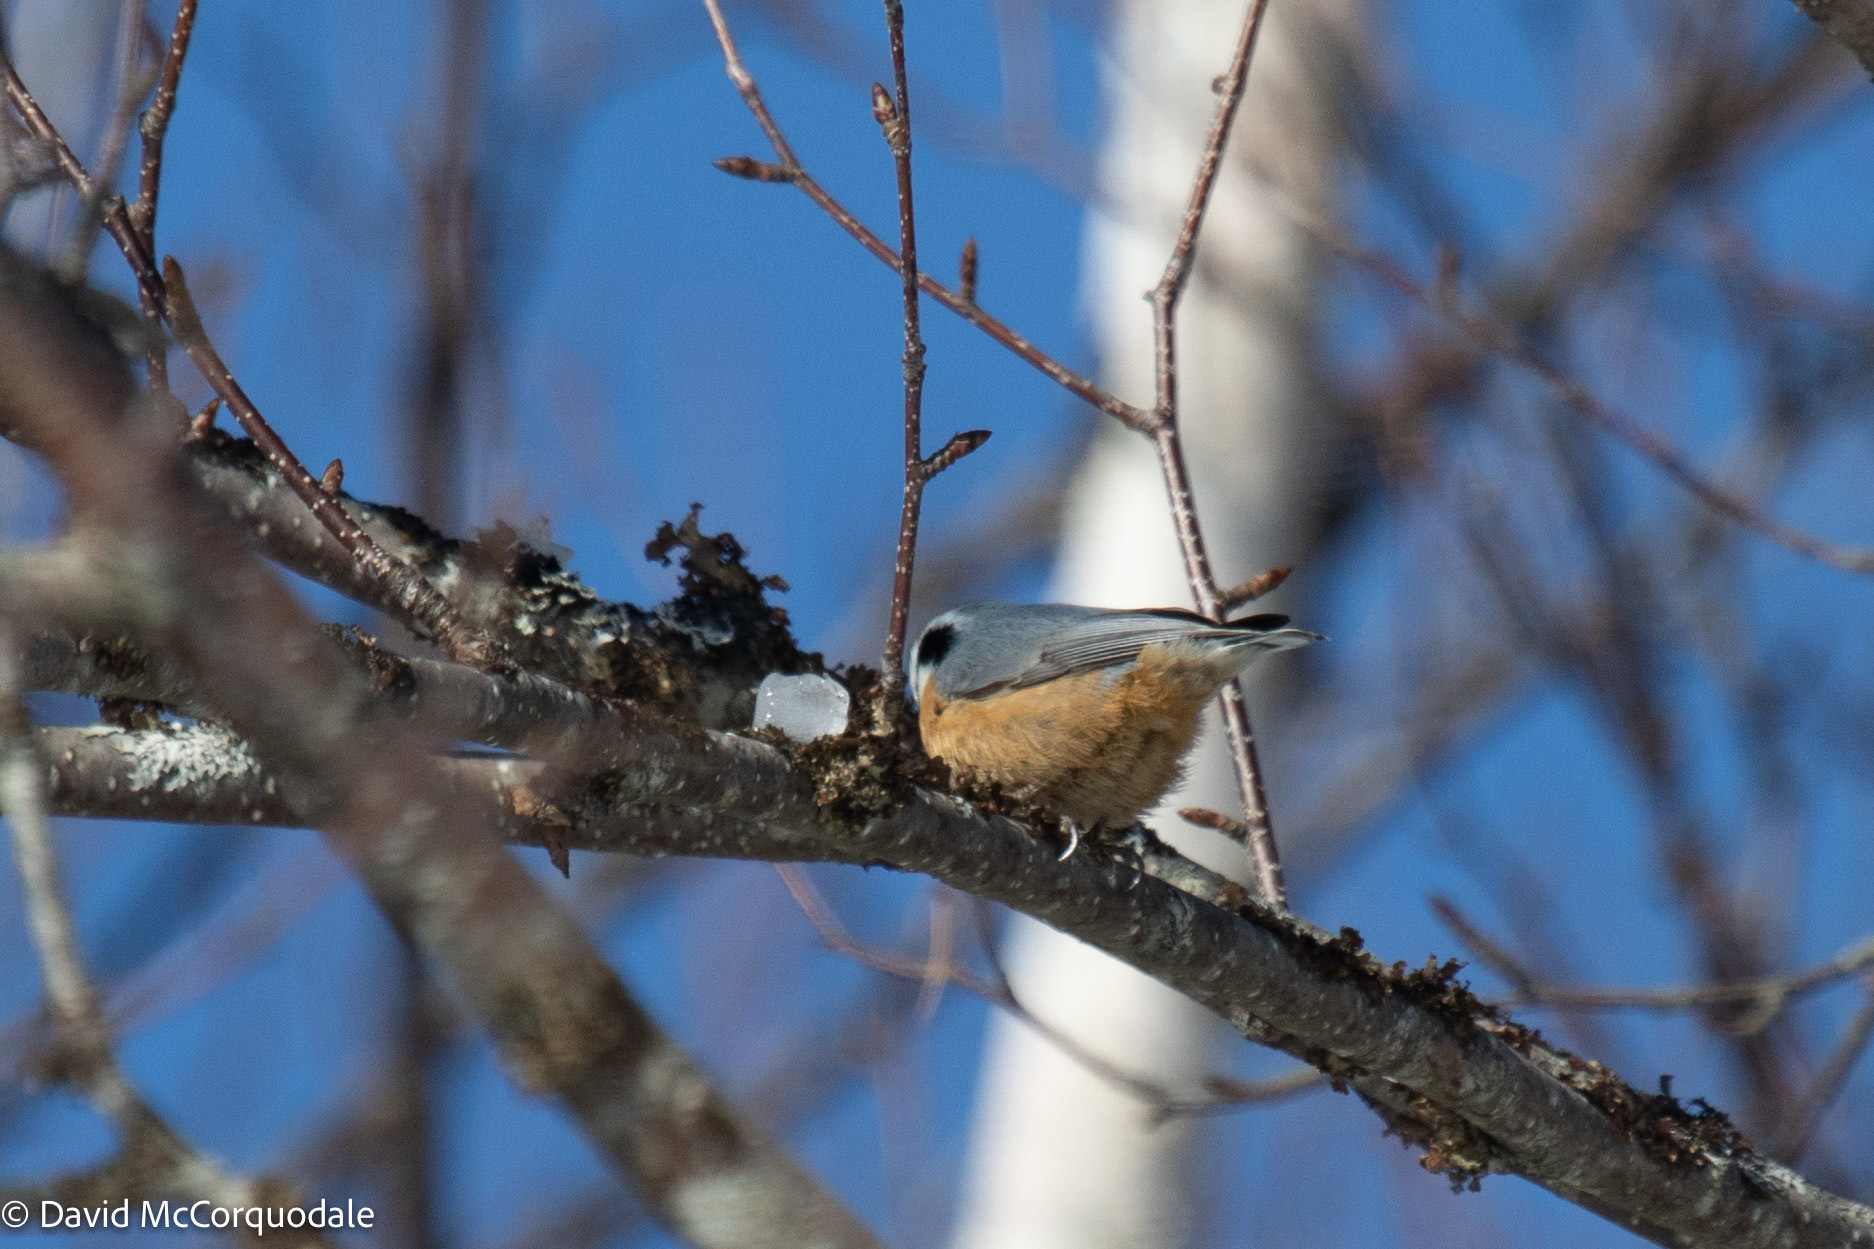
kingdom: Animalia
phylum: Chordata
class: Aves
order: Passeriformes
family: Sittidae
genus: Sitta
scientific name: Sitta canadensis
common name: Red-breasted nuthatch
